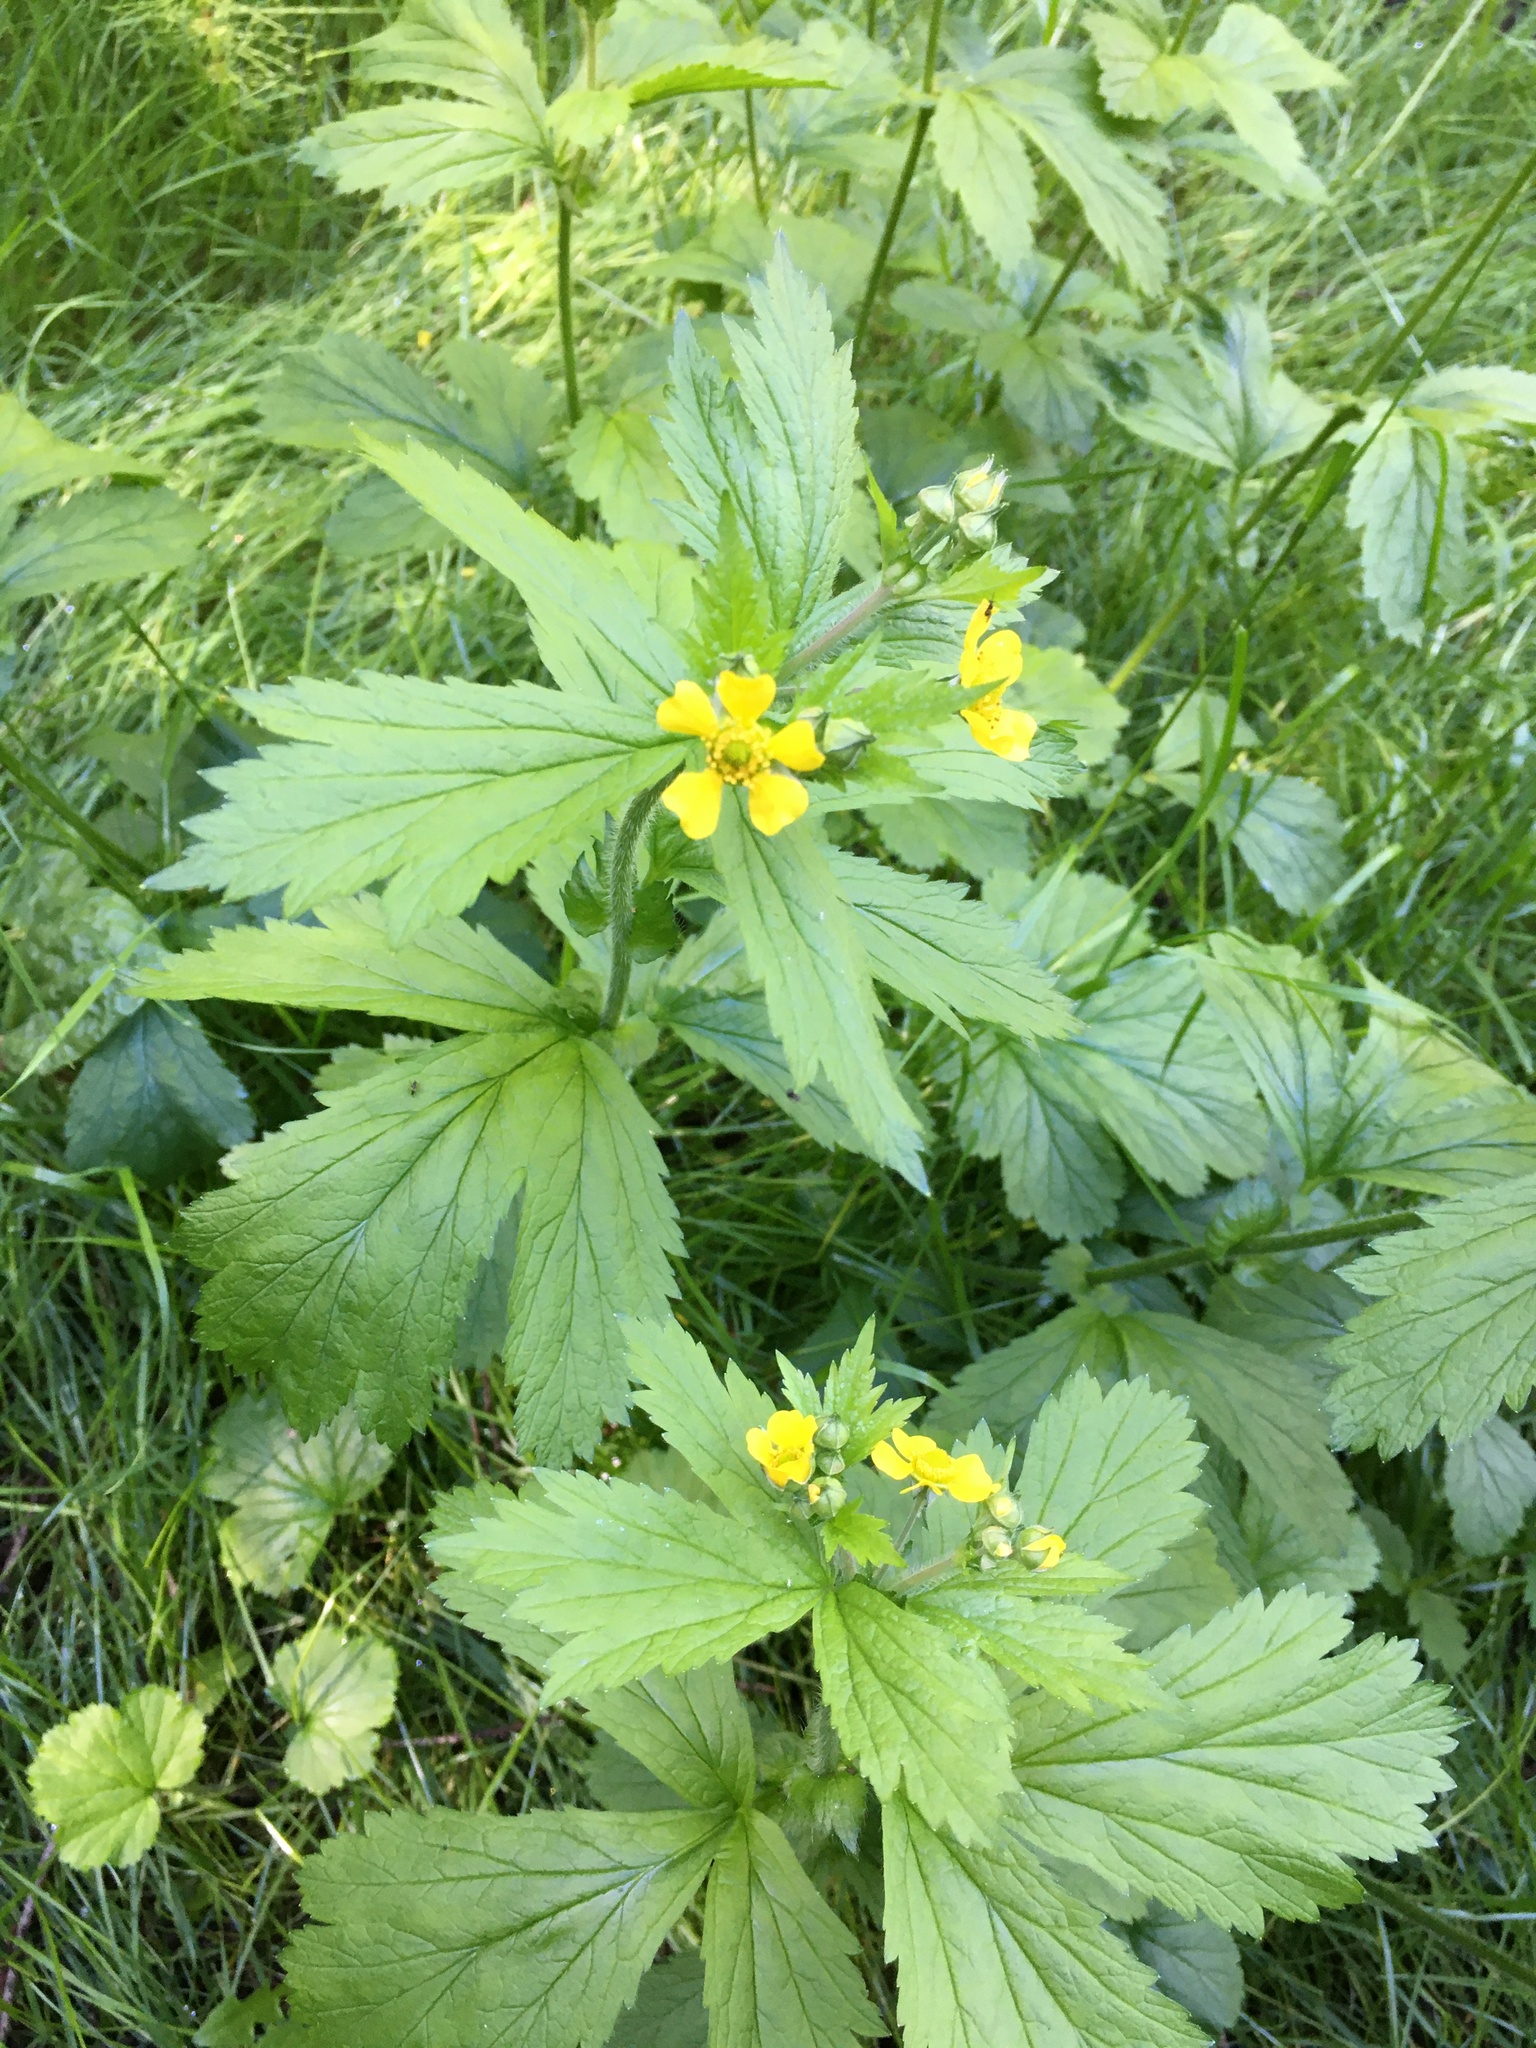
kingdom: Plantae
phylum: Tracheophyta
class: Magnoliopsida
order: Rosales
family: Rosaceae
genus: Geum
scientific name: Geum macrophyllum
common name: Large-leaved avens
